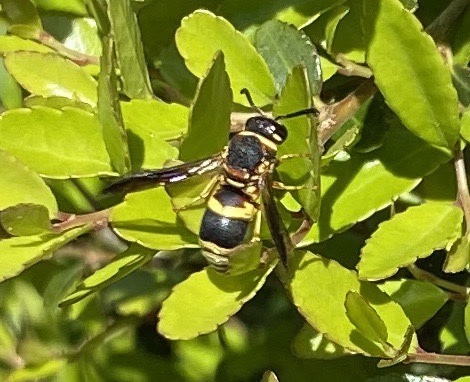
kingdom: Animalia
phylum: Arthropoda
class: Insecta
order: Hymenoptera
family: Eumenidae
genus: Euodynerus
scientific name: Euodynerus hidalgo
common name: Wasp
